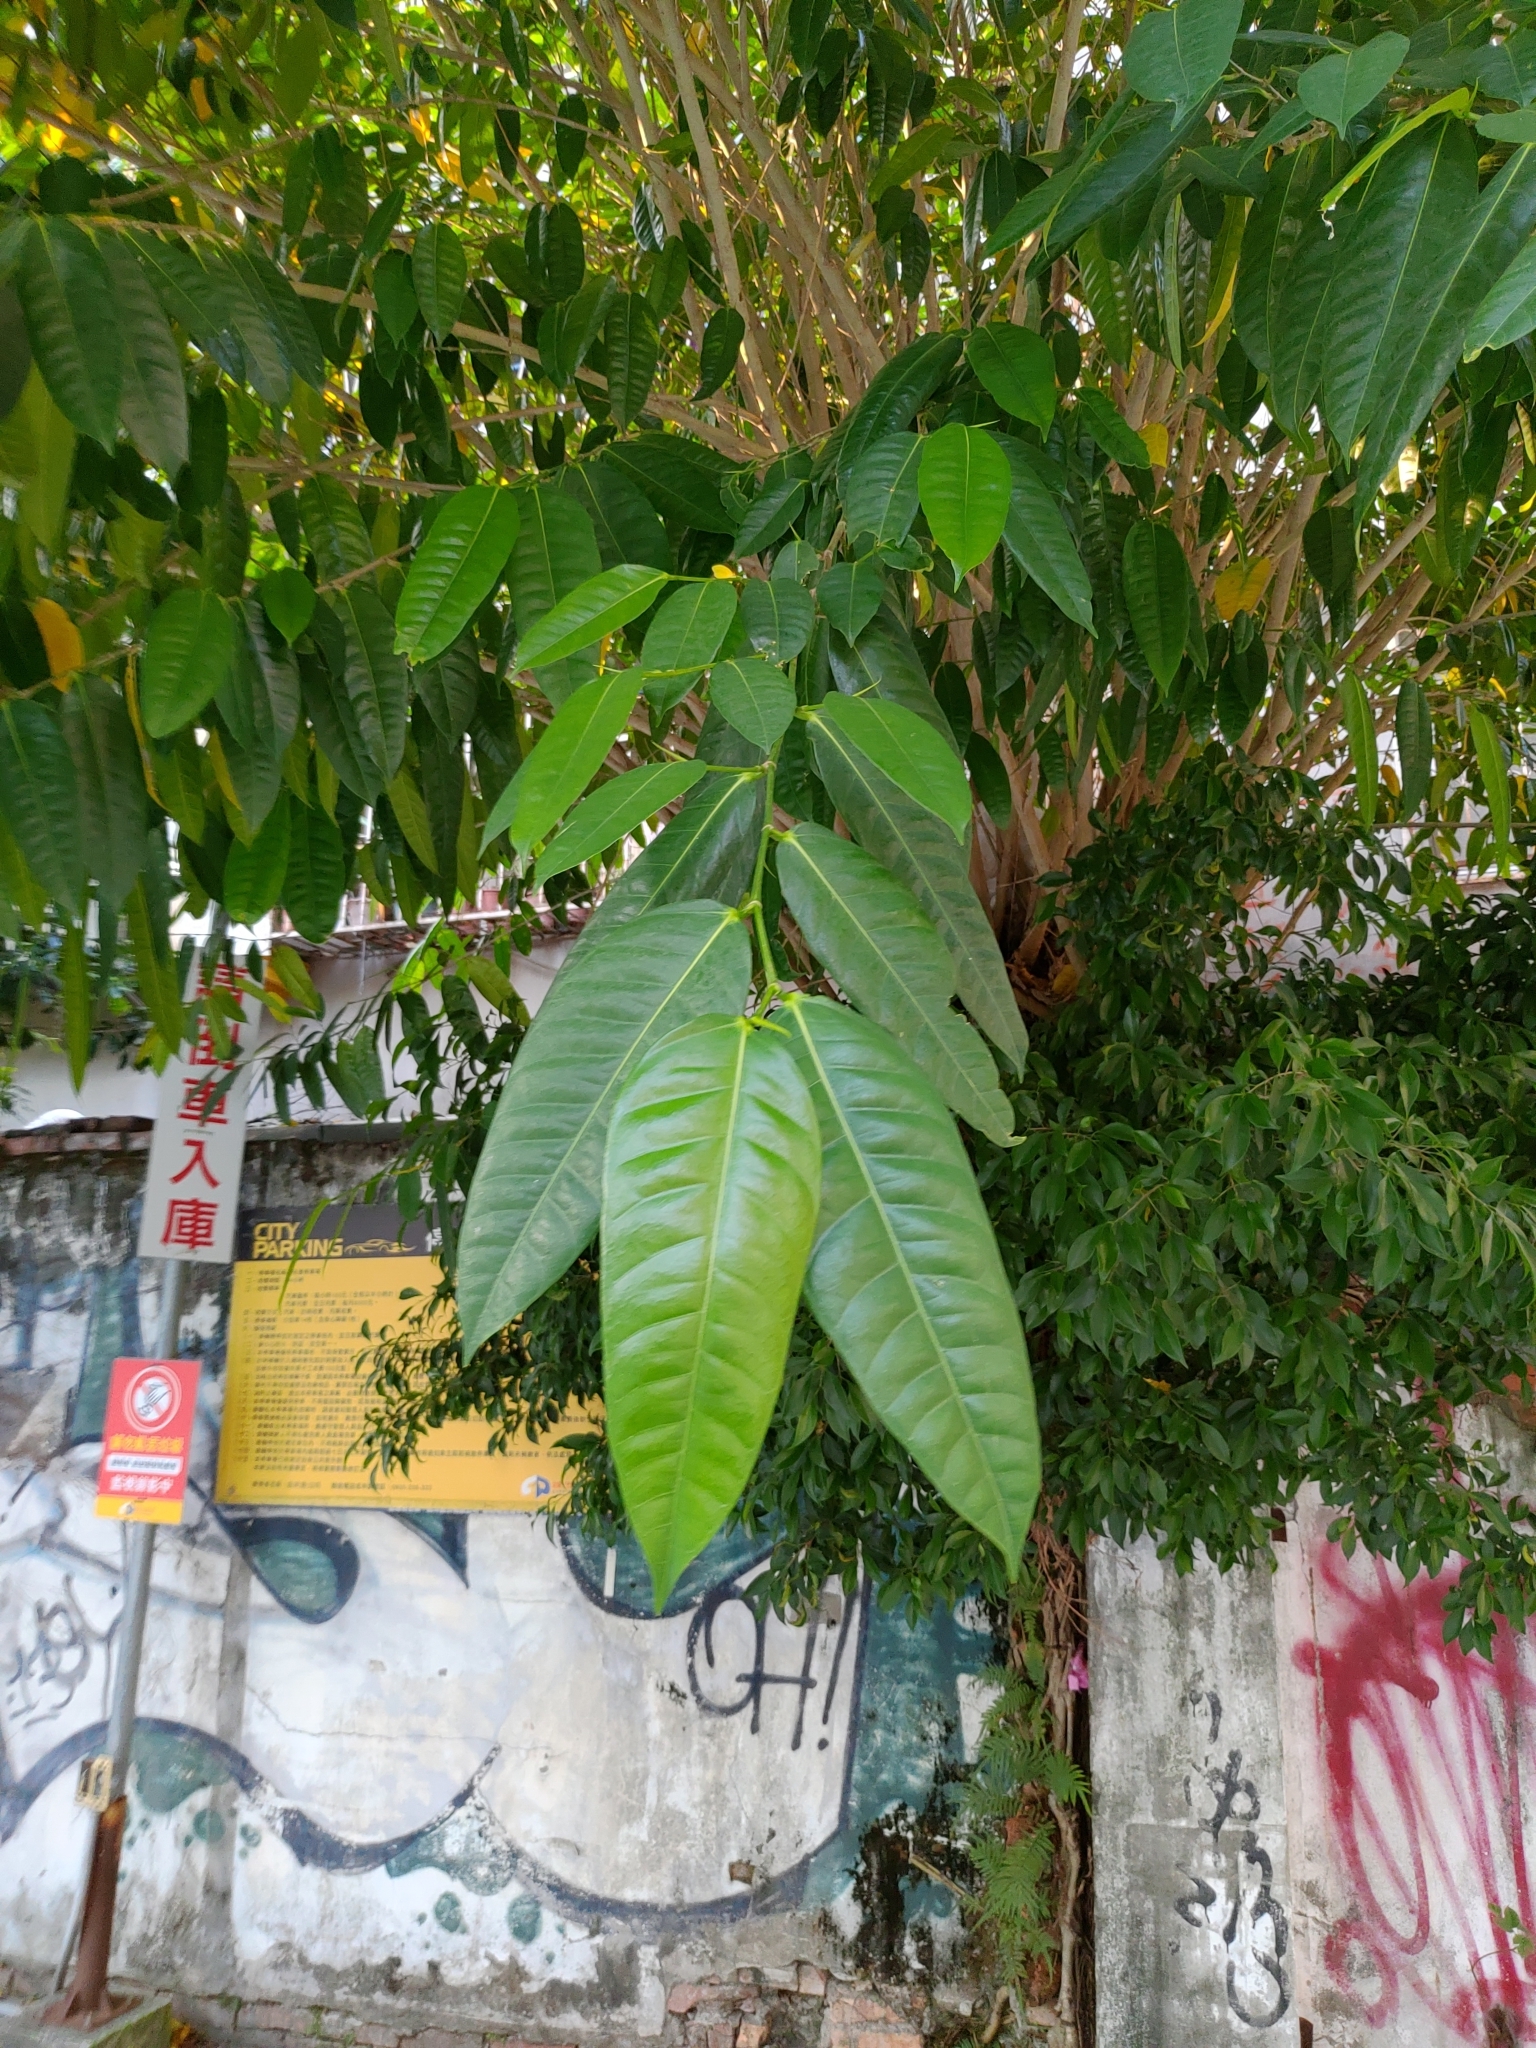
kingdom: Plantae
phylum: Tracheophyta
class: Magnoliopsida
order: Rosales
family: Moraceae
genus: Ficus
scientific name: Ficus virgata
